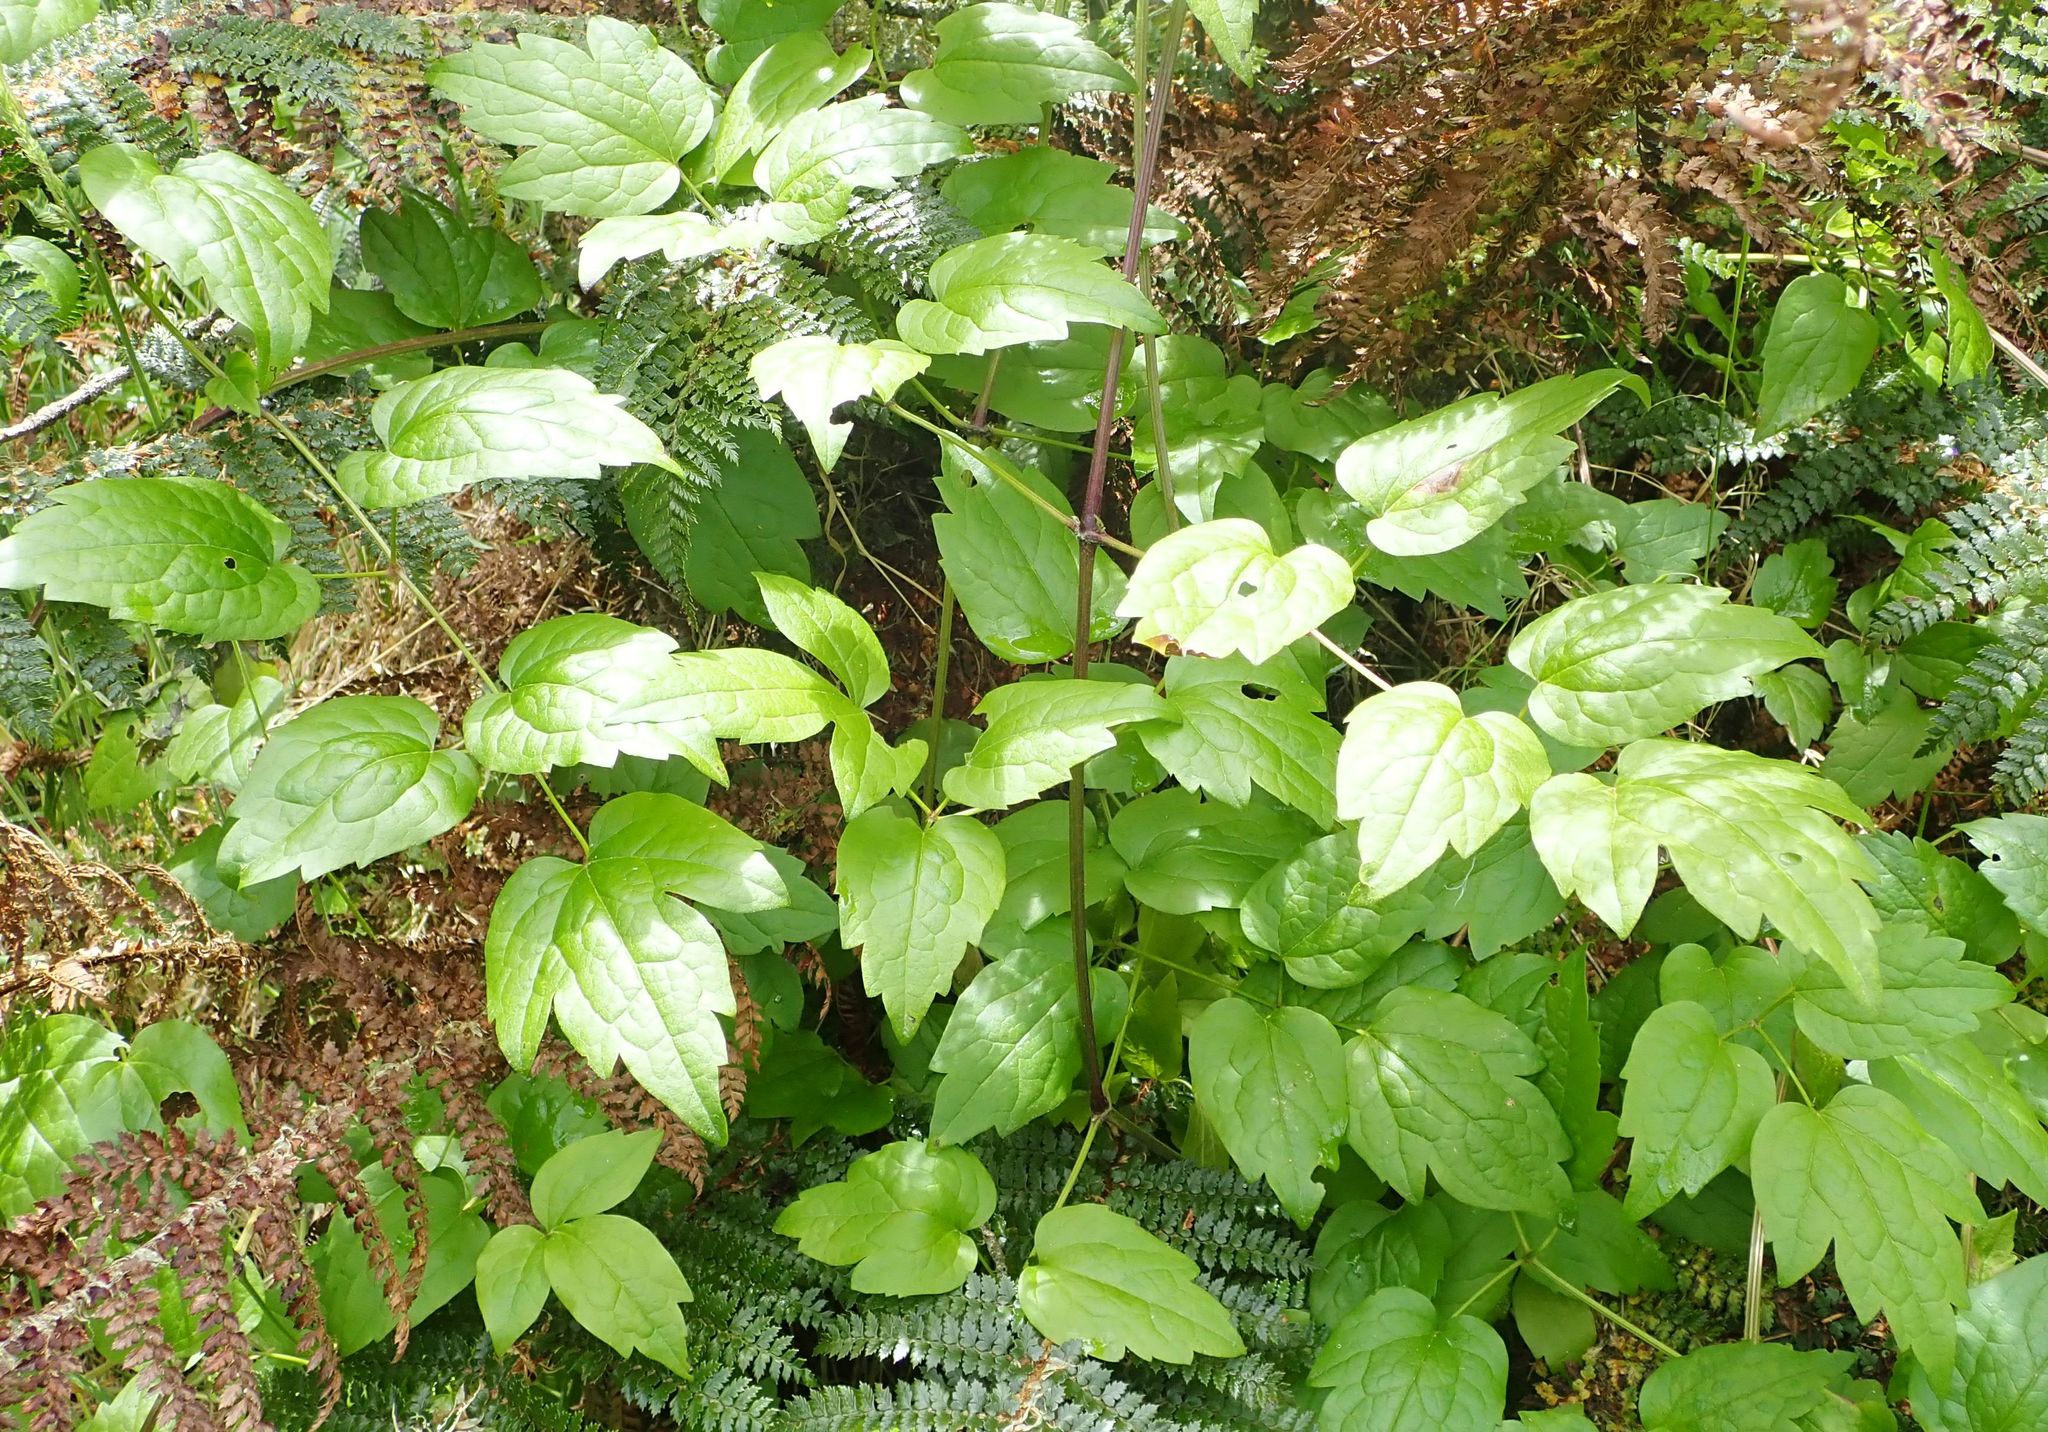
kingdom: Plantae
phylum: Tracheophyta
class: Magnoliopsida
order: Ranunculales
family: Ranunculaceae
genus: Clematis
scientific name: Clematis vitalba
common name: Evergreen clematis
